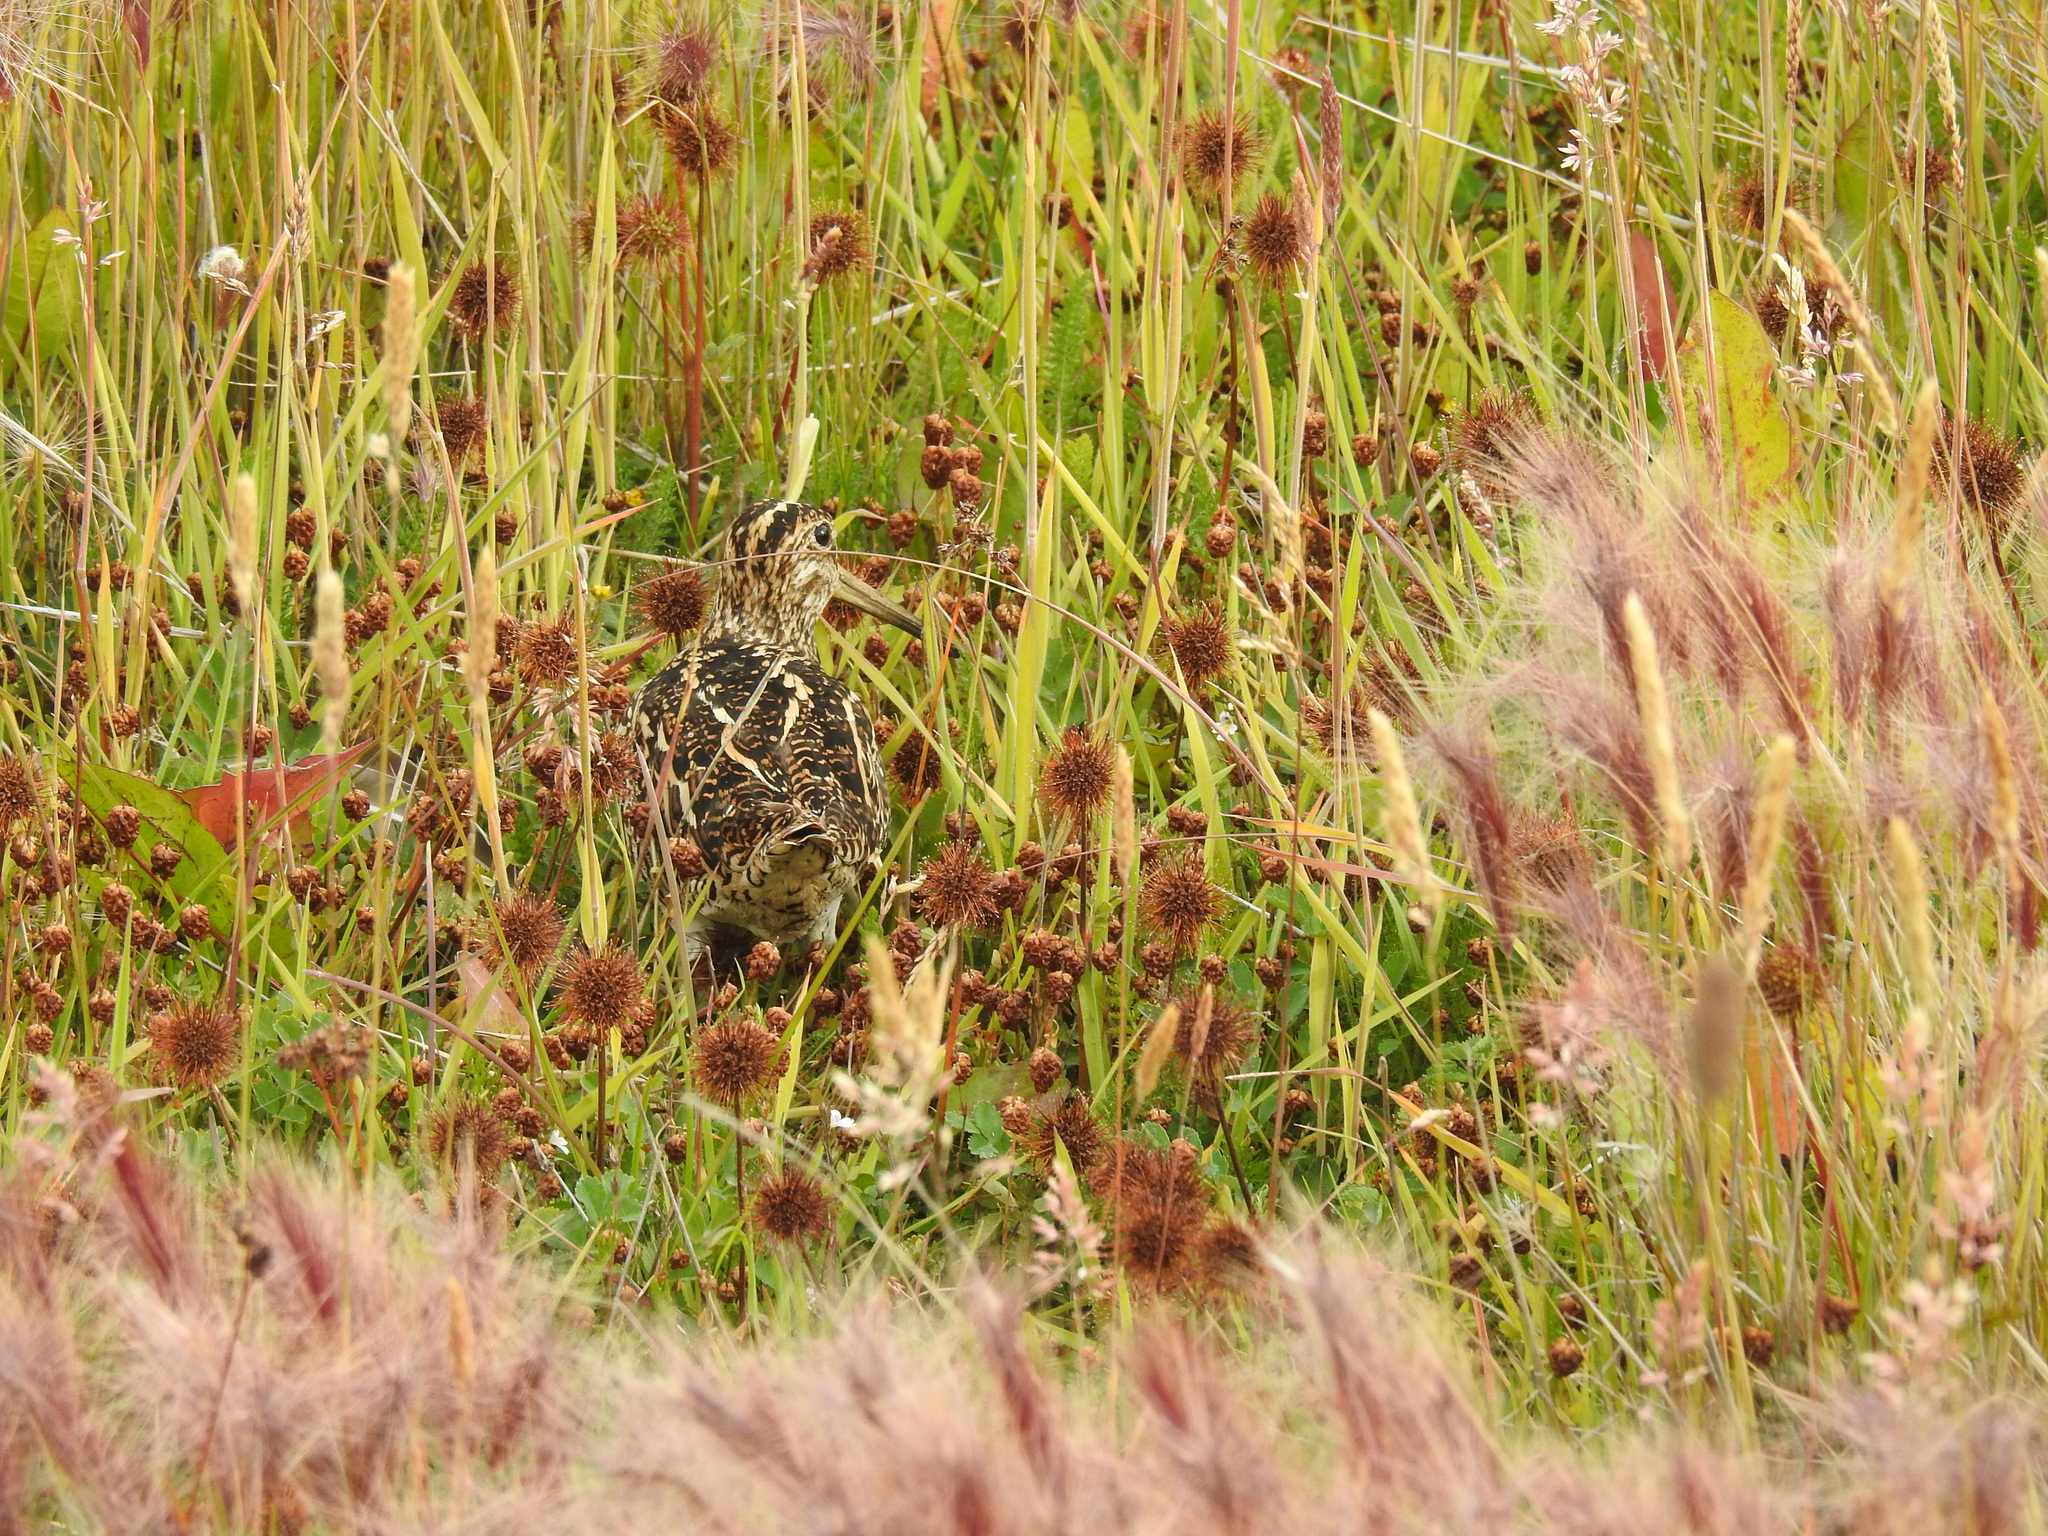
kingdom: Animalia
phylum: Chordata
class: Aves
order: Charadriiformes
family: Scolopacidae
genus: Gallinago
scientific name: Gallinago magellanica
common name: Magellanic snipe
